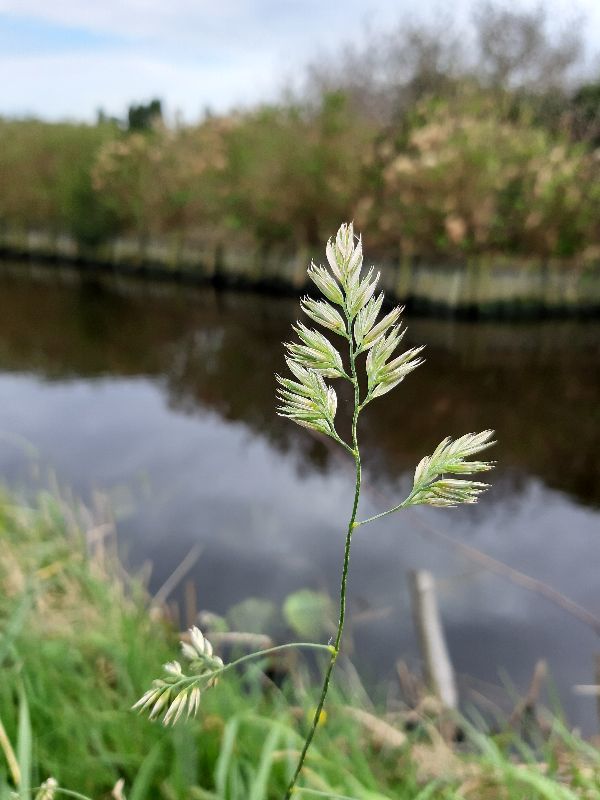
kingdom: Plantae
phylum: Tracheophyta
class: Liliopsida
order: Poales
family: Poaceae
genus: Dactylis
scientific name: Dactylis glomerata
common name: Orchardgrass
